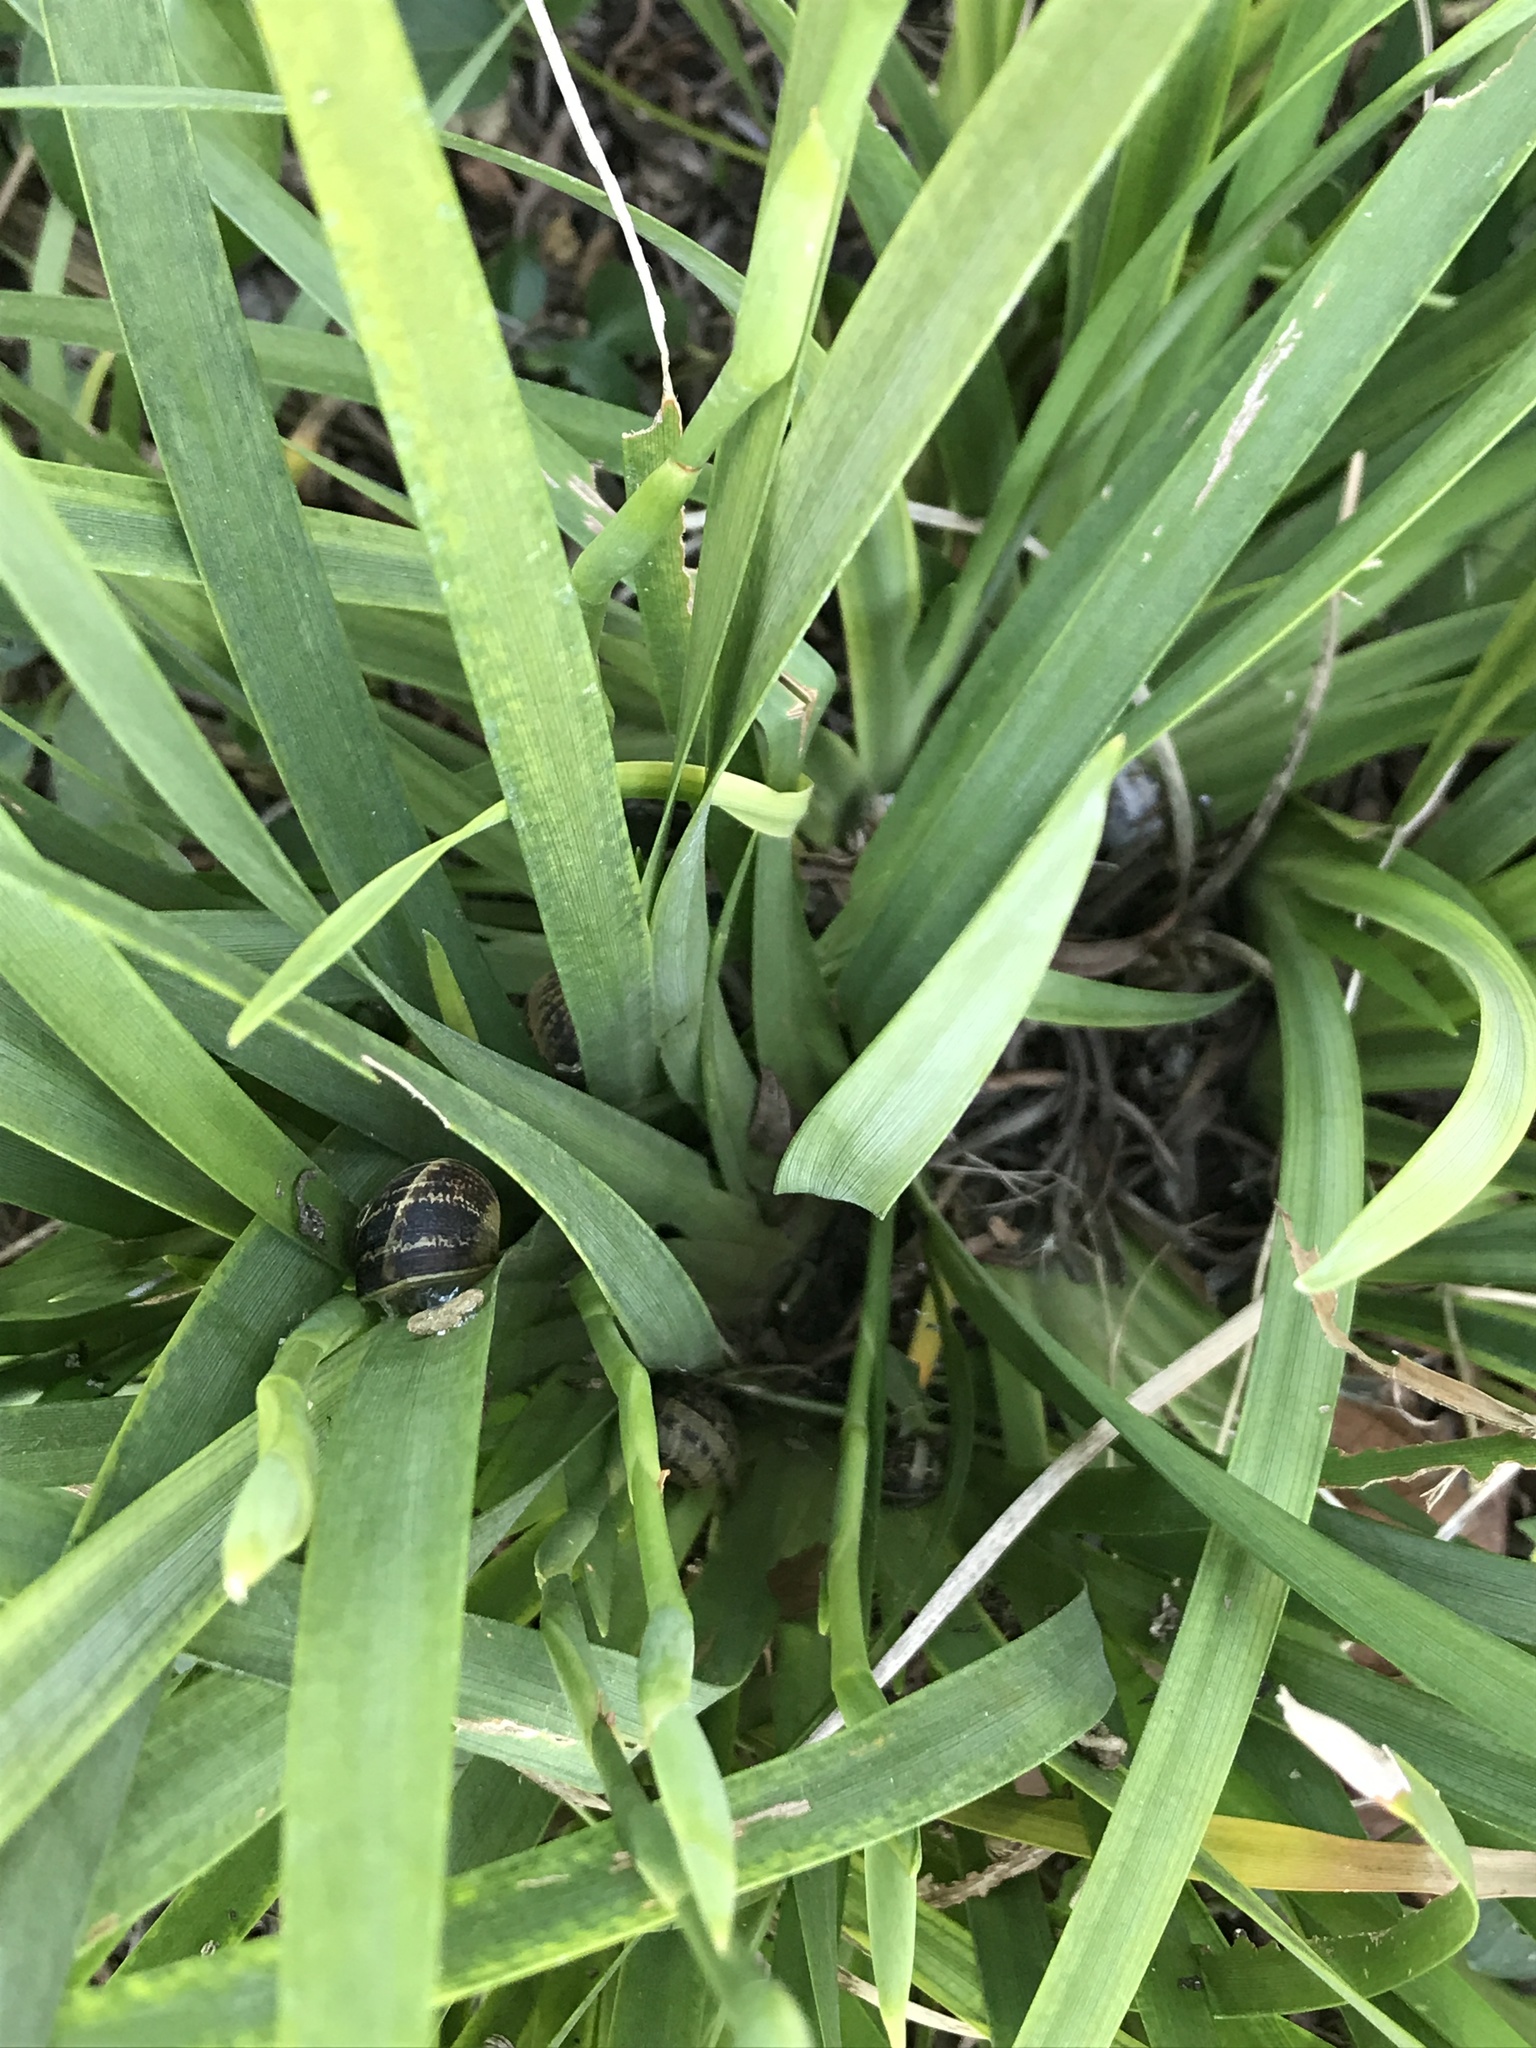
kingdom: Animalia
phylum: Mollusca
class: Gastropoda
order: Stylommatophora
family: Helicidae
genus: Cornu
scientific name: Cornu aspersum
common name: Brown garden snail
